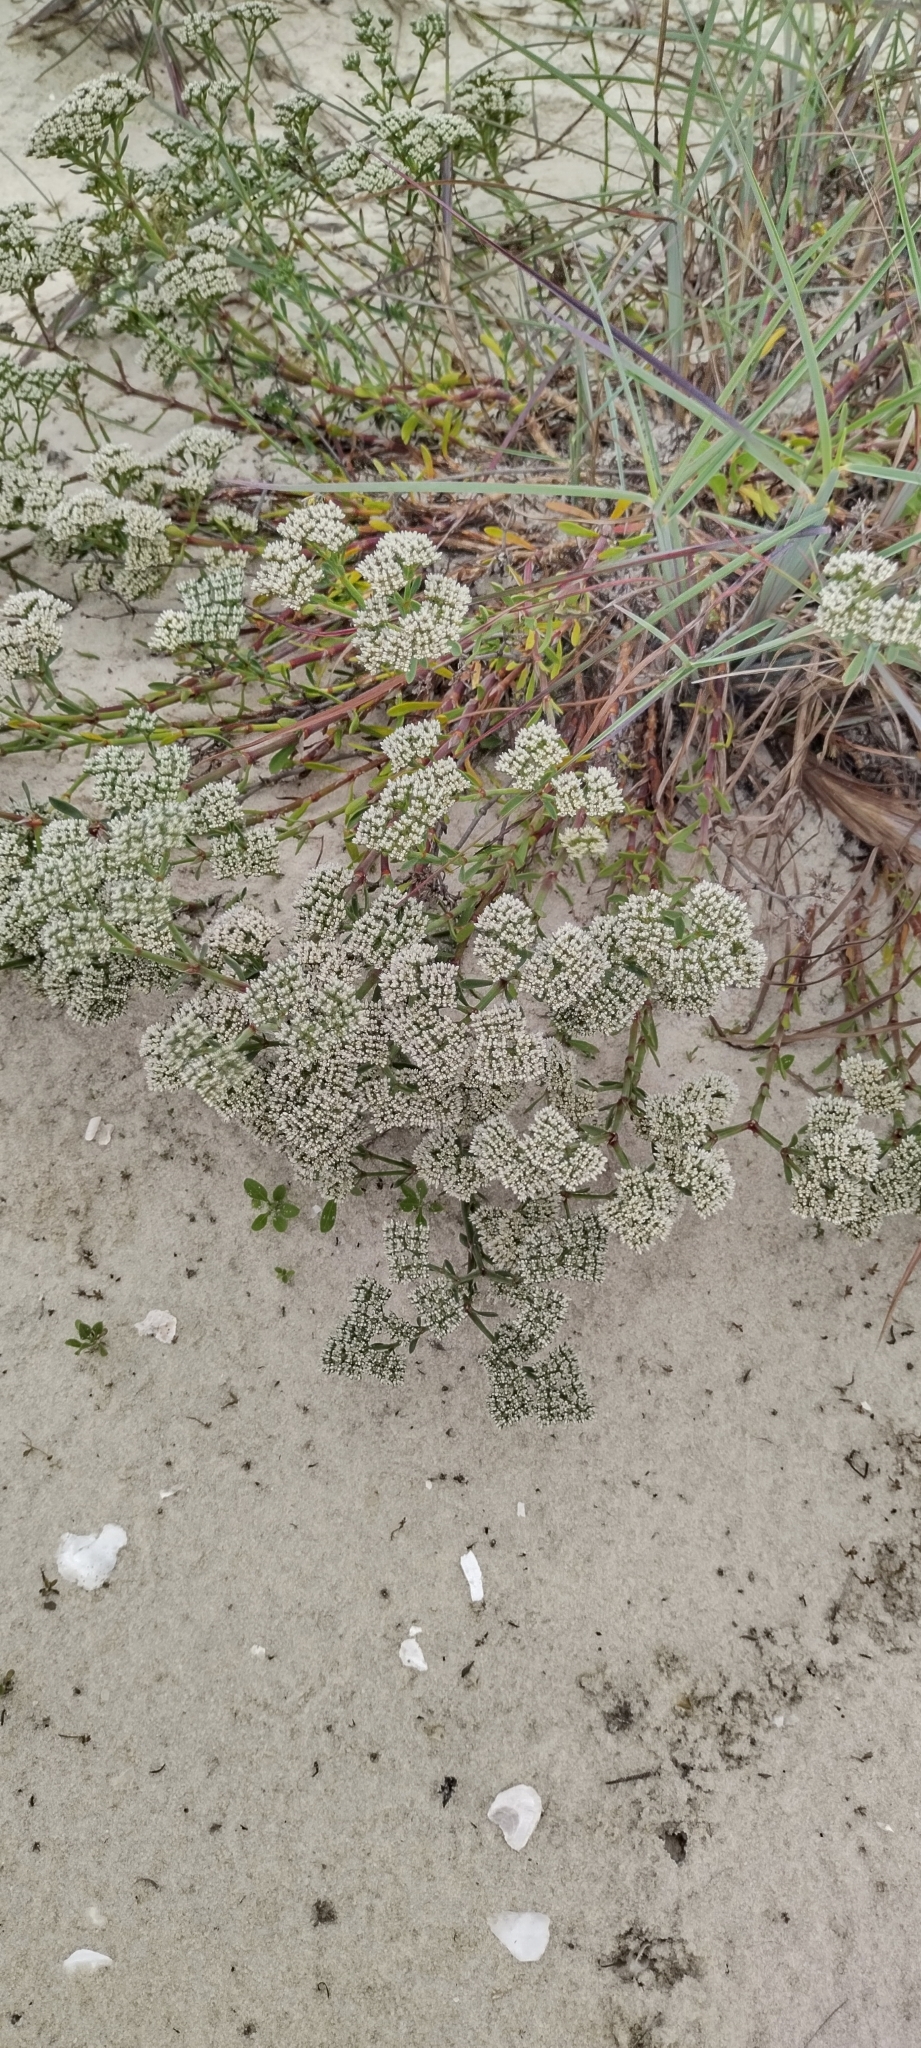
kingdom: Plantae
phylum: Tracheophyta
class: Magnoliopsida
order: Caryophyllales
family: Caryophyllaceae
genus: Paronychia
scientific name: Paronychia erecta
